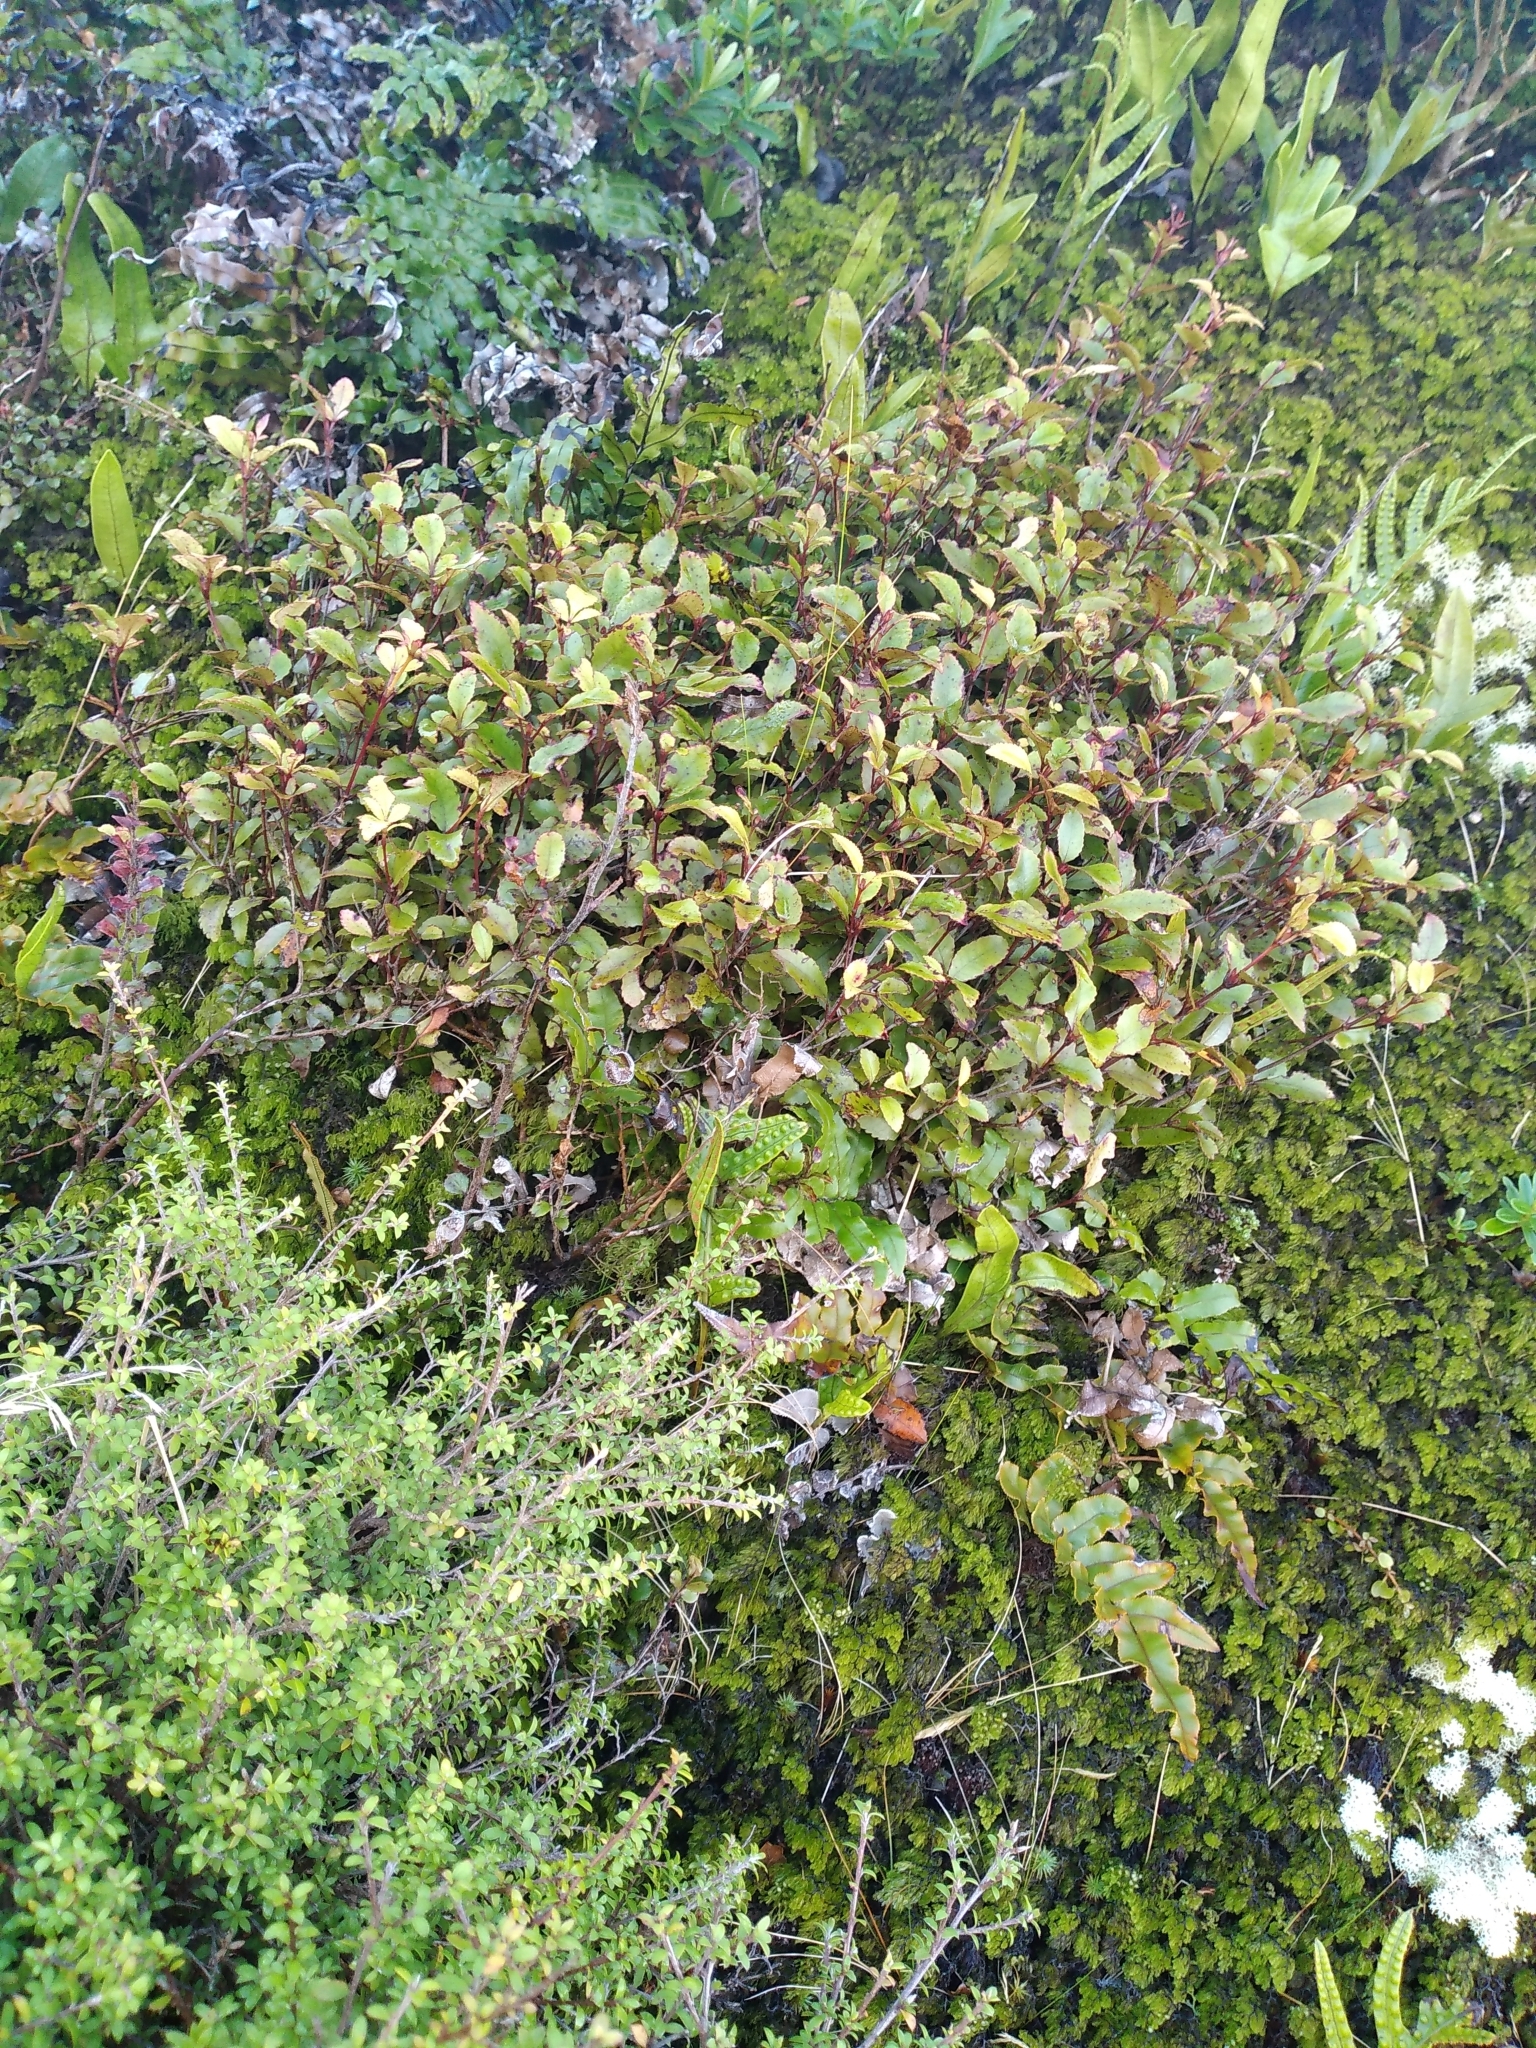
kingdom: Plantae
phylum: Tracheophyta
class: Magnoliopsida
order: Oxalidales
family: Cunoniaceae
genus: Pterophylla
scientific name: Pterophylla racemosa
